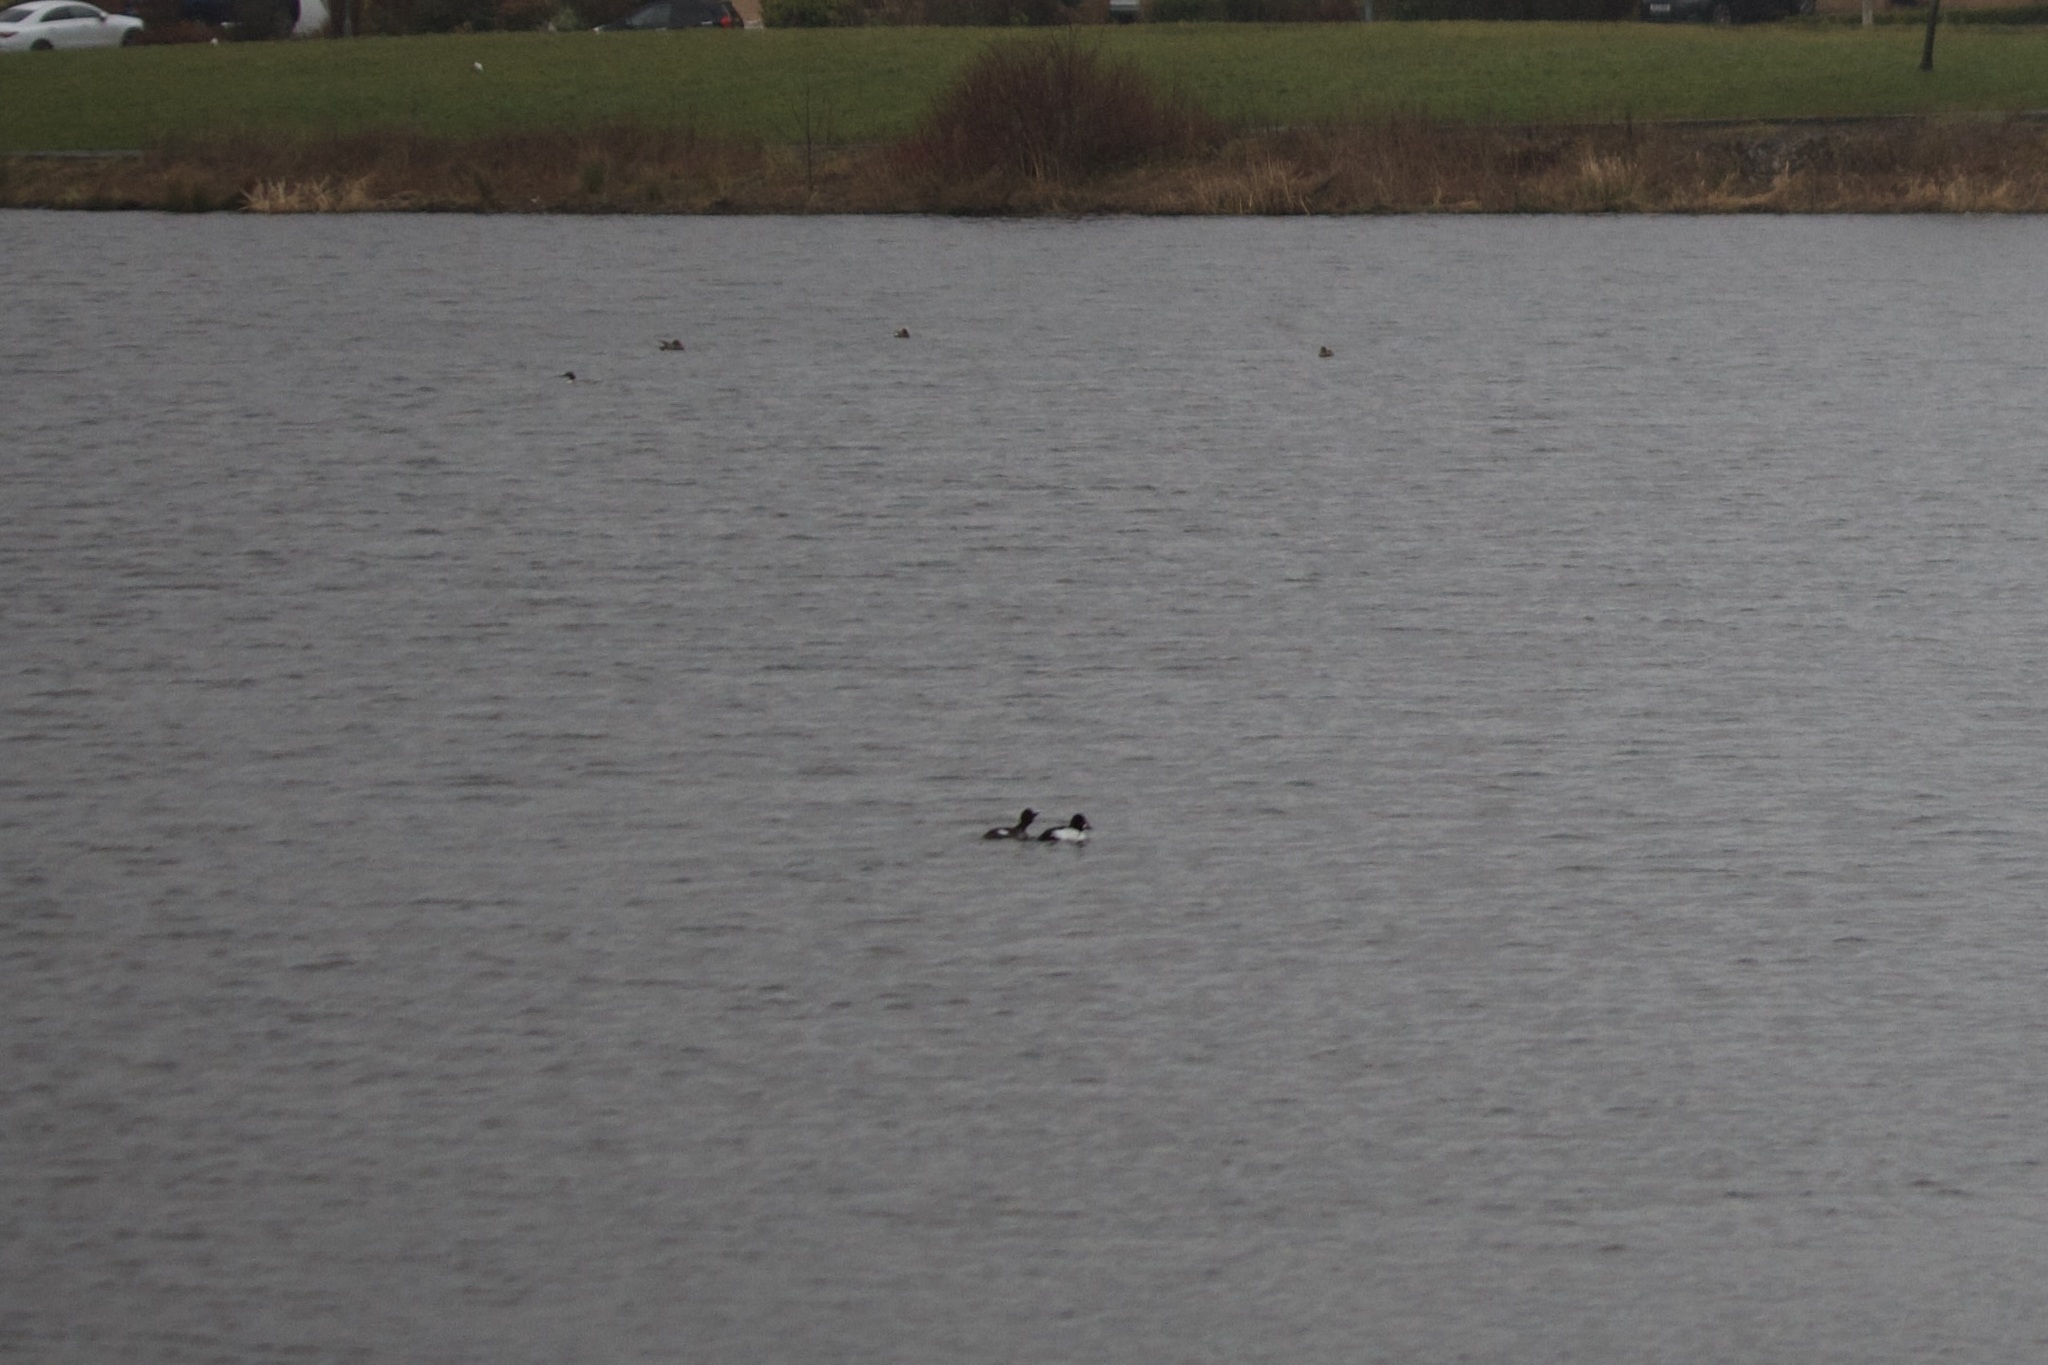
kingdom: Animalia
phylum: Chordata
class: Aves
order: Anseriformes
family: Anatidae
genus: Bucephala
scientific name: Bucephala clangula
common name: Common goldeneye
